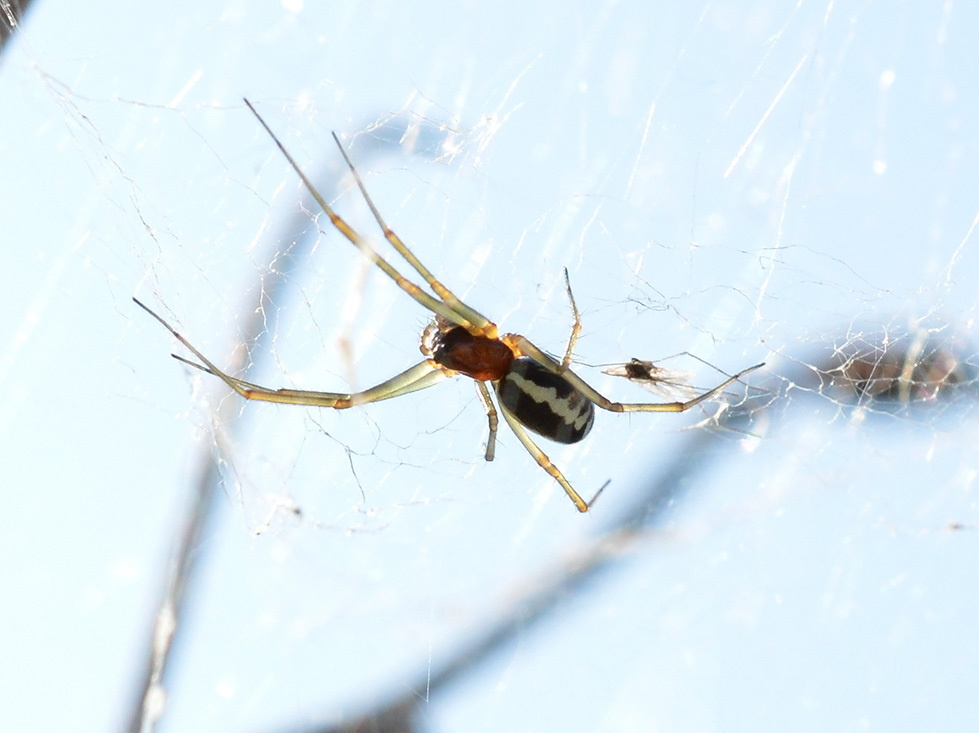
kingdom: Animalia
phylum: Arthropoda
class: Arachnida
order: Araneae
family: Linyphiidae
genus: Frontinellina
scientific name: Frontinellina frutetorum
